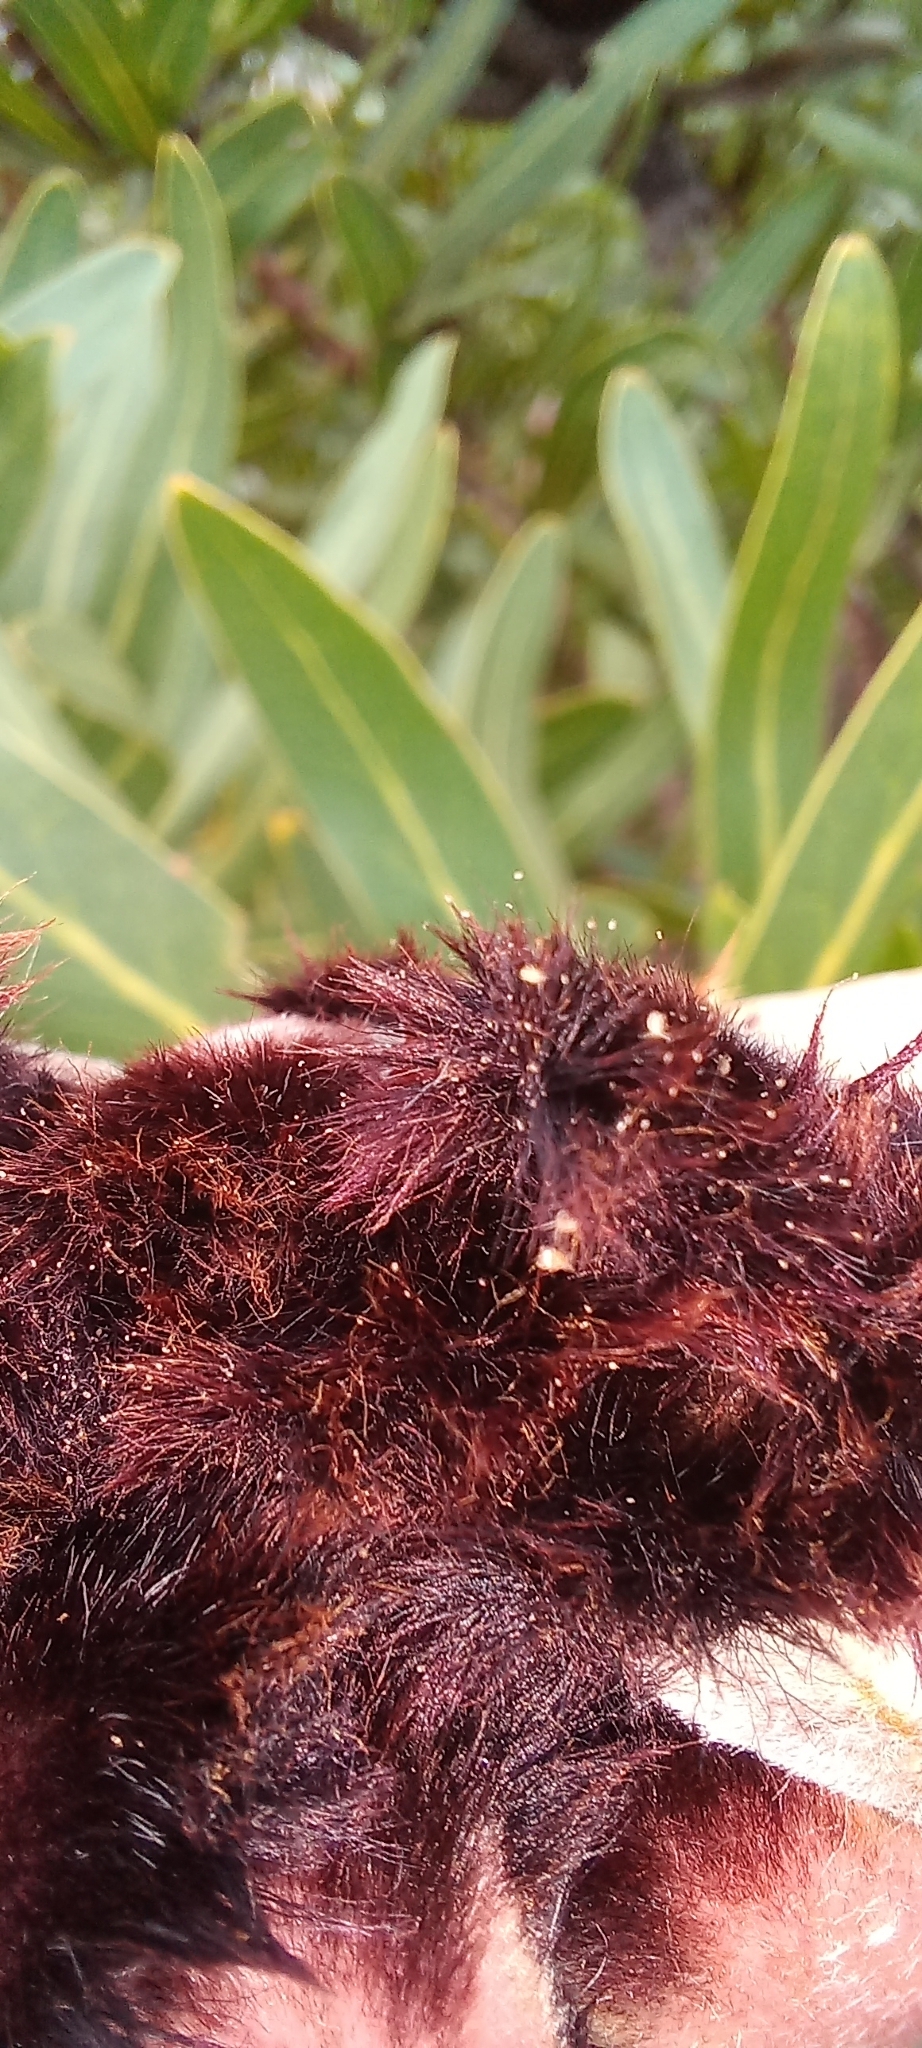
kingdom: Animalia
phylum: Arthropoda
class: Arachnida
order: Mesostigmata
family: Melicharidae
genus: Proctolaelaps
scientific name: Proctolaelaps vandenbergi
